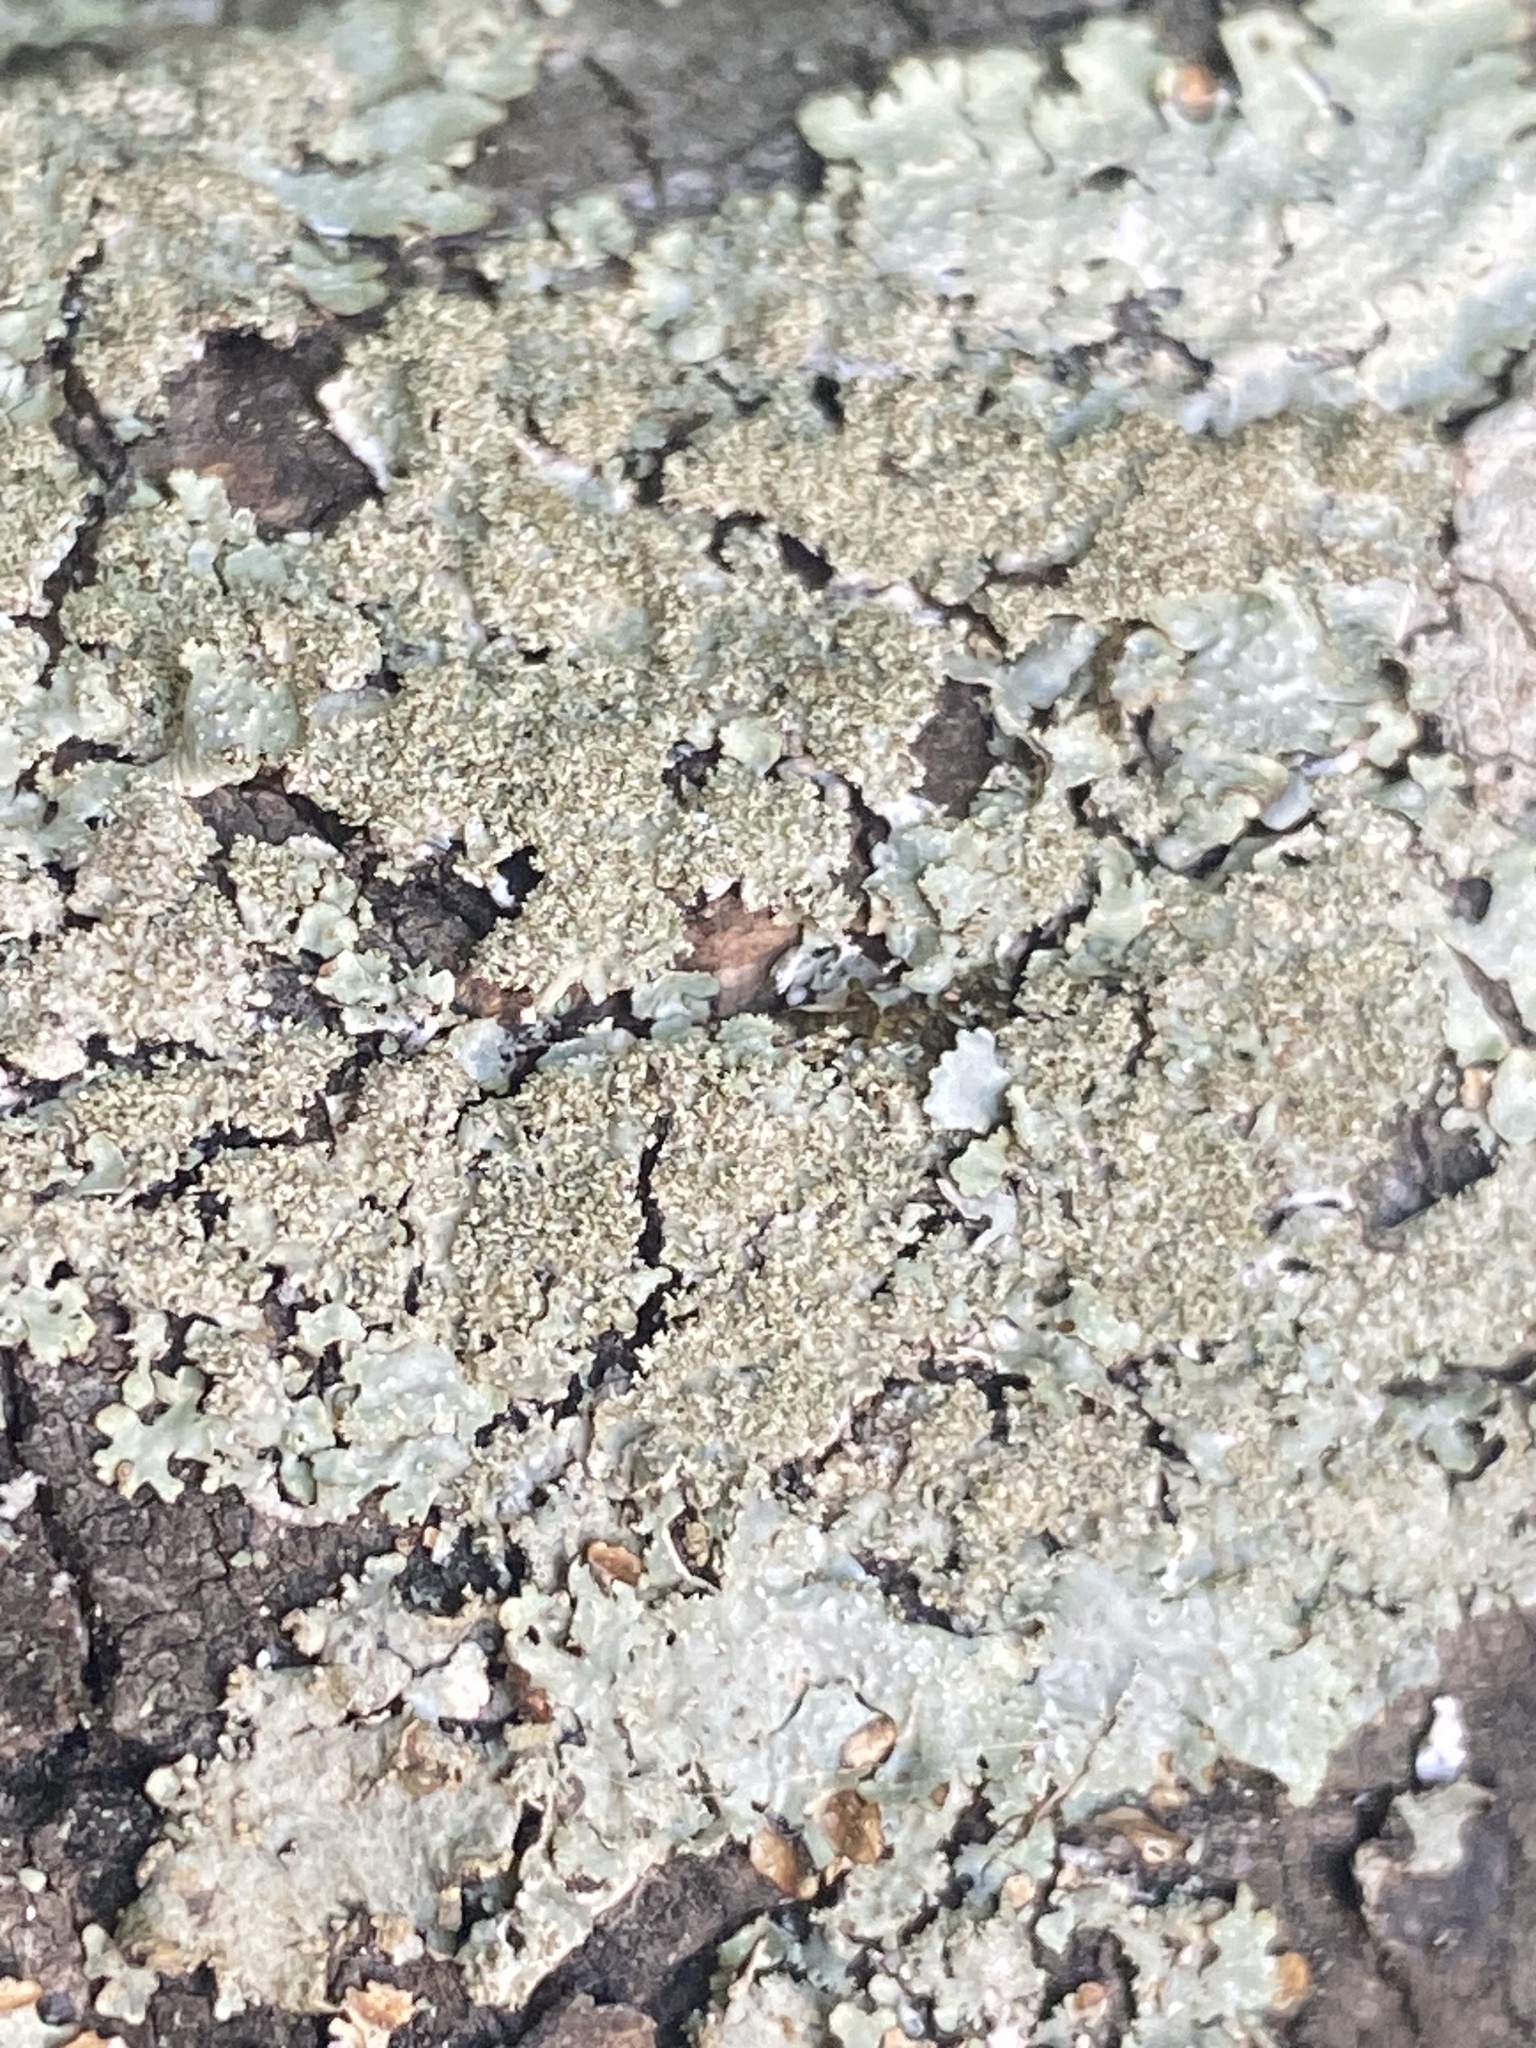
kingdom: Fungi
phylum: Ascomycota
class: Lecanoromycetes
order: Lecanorales
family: Parmeliaceae
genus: Punctelia
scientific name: Punctelia rudecta
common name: Rough speckled shield lichen
